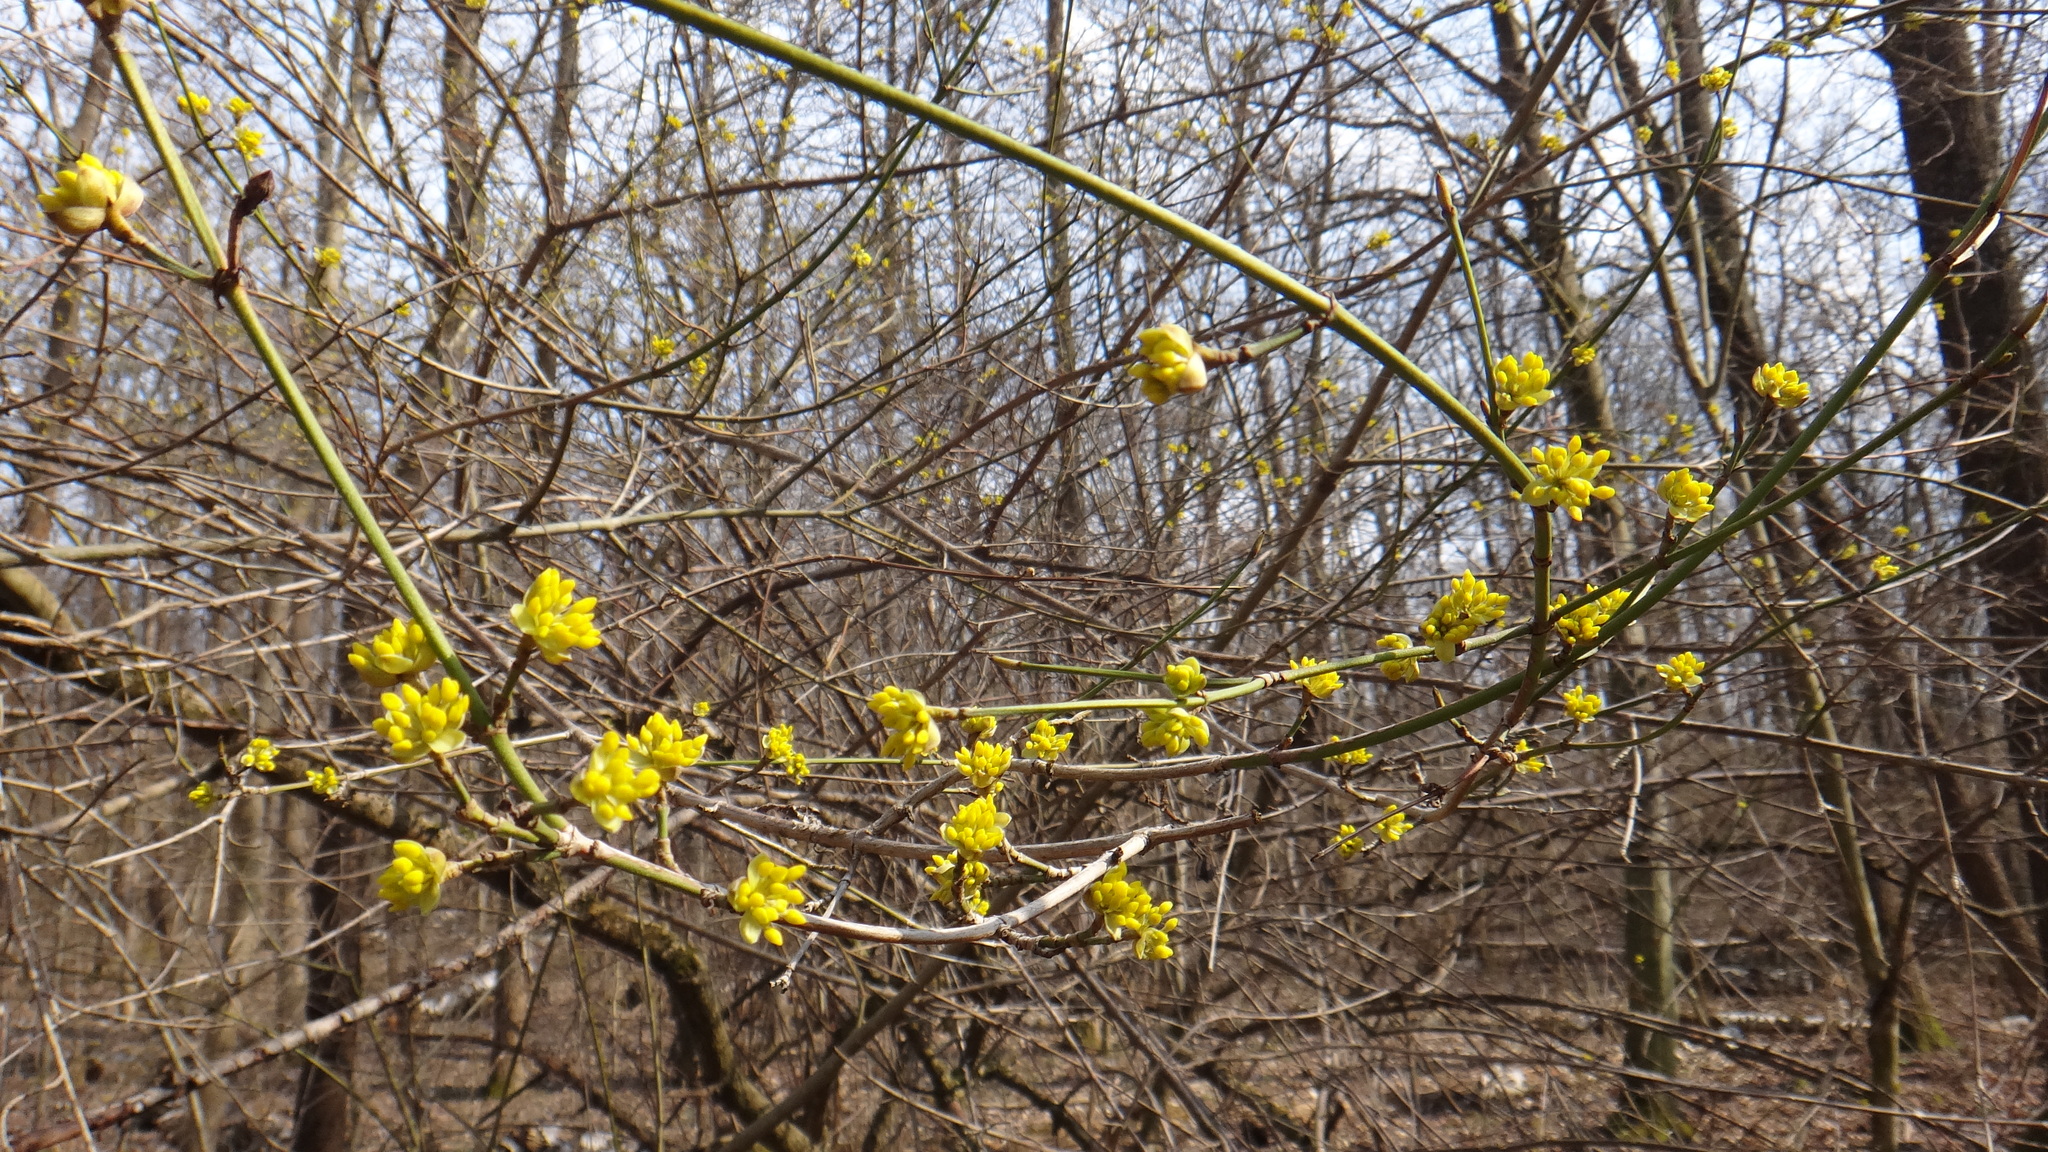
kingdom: Plantae
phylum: Tracheophyta
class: Magnoliopsida
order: Cornales
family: Cornaceae
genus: Cornus
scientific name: Cornus mas
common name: Cornelian-cherry
